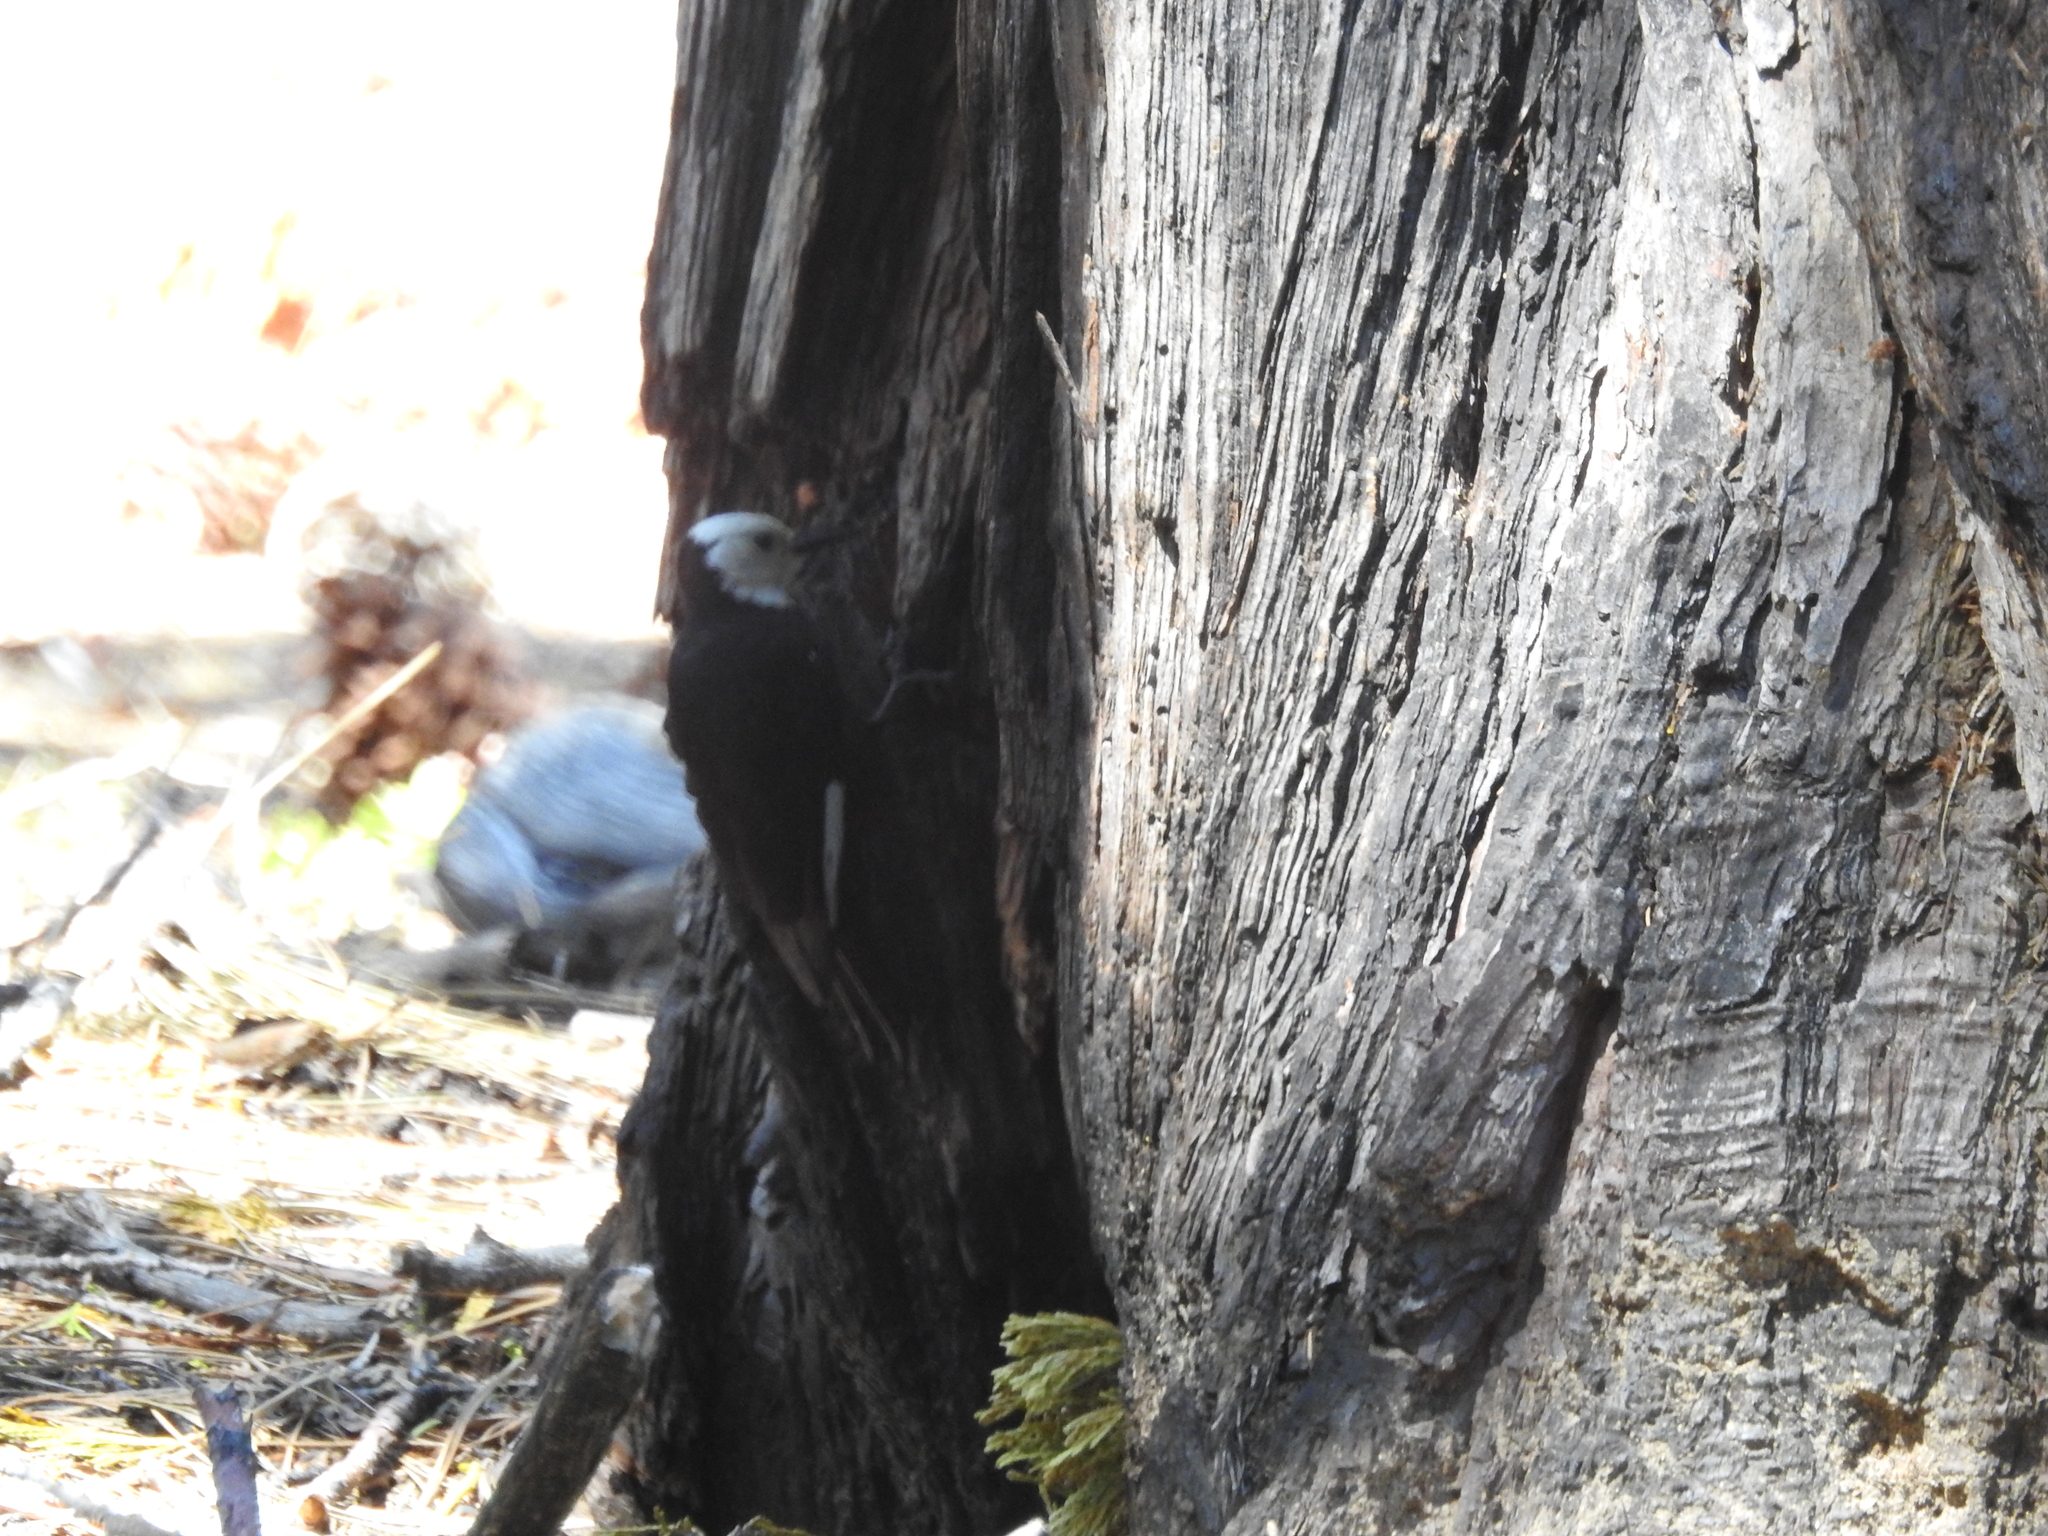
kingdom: Animalia
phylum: Chordata
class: Aves
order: Piciformes
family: Picidae
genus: Leuconotopicus
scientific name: Leuconotopicus albolarvatus
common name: White-headed woodpecker
